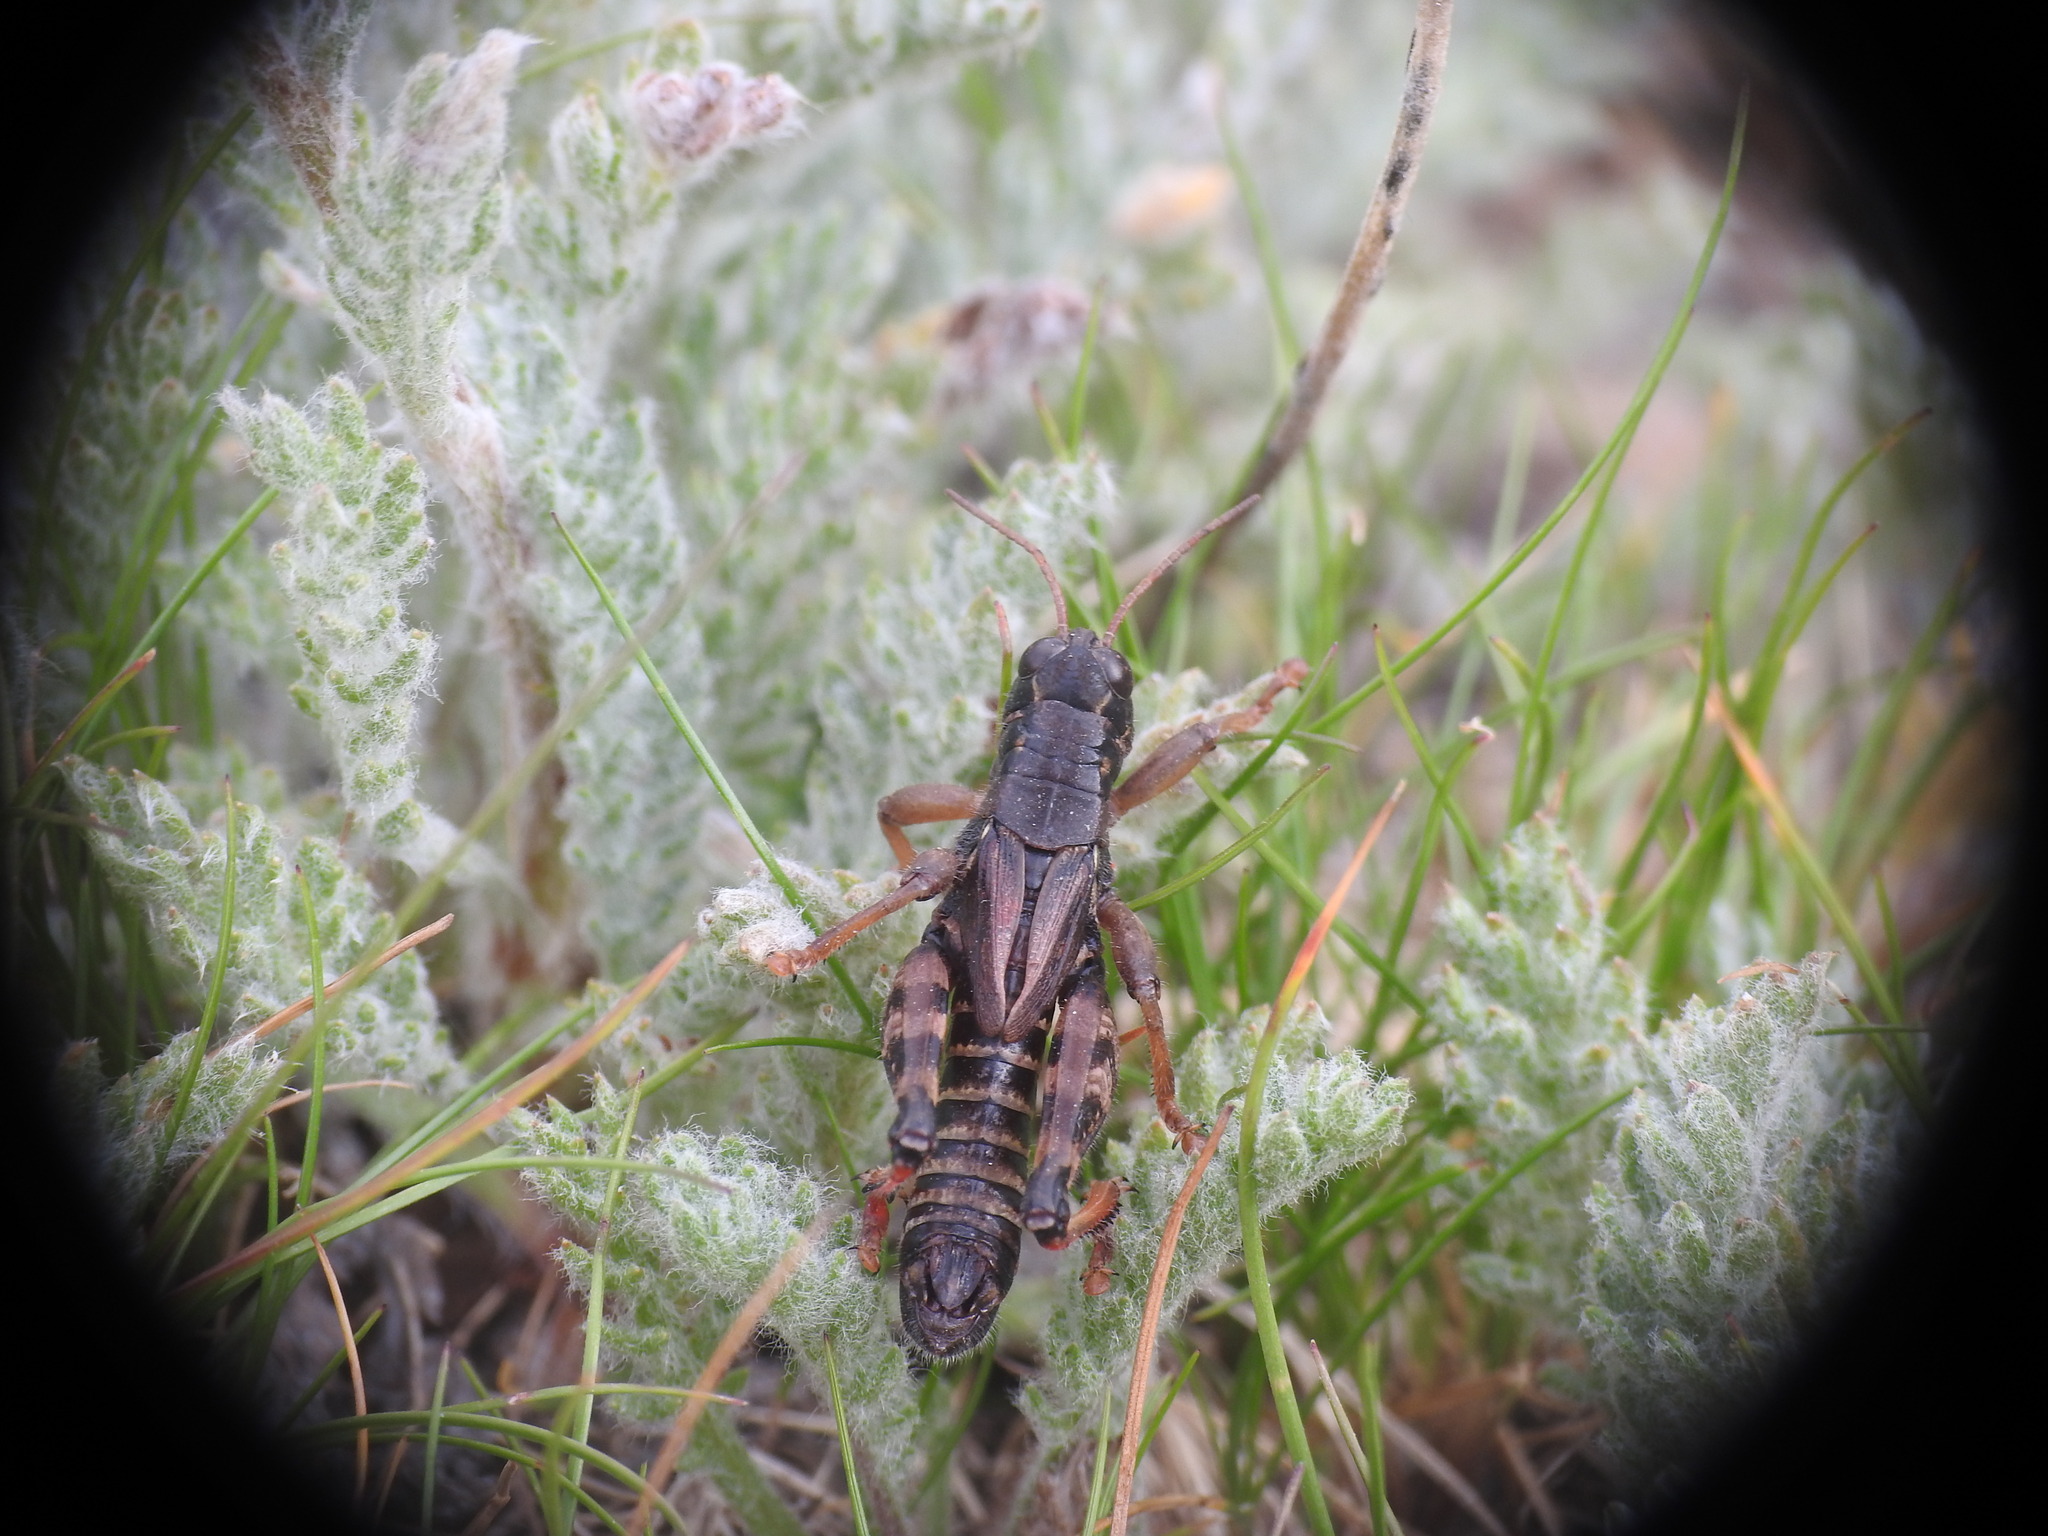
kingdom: Animalia
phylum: Arthropoda
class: Insecta
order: Orthoptera
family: Acrididae
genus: Bohemanella
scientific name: Bohemanella frigida
